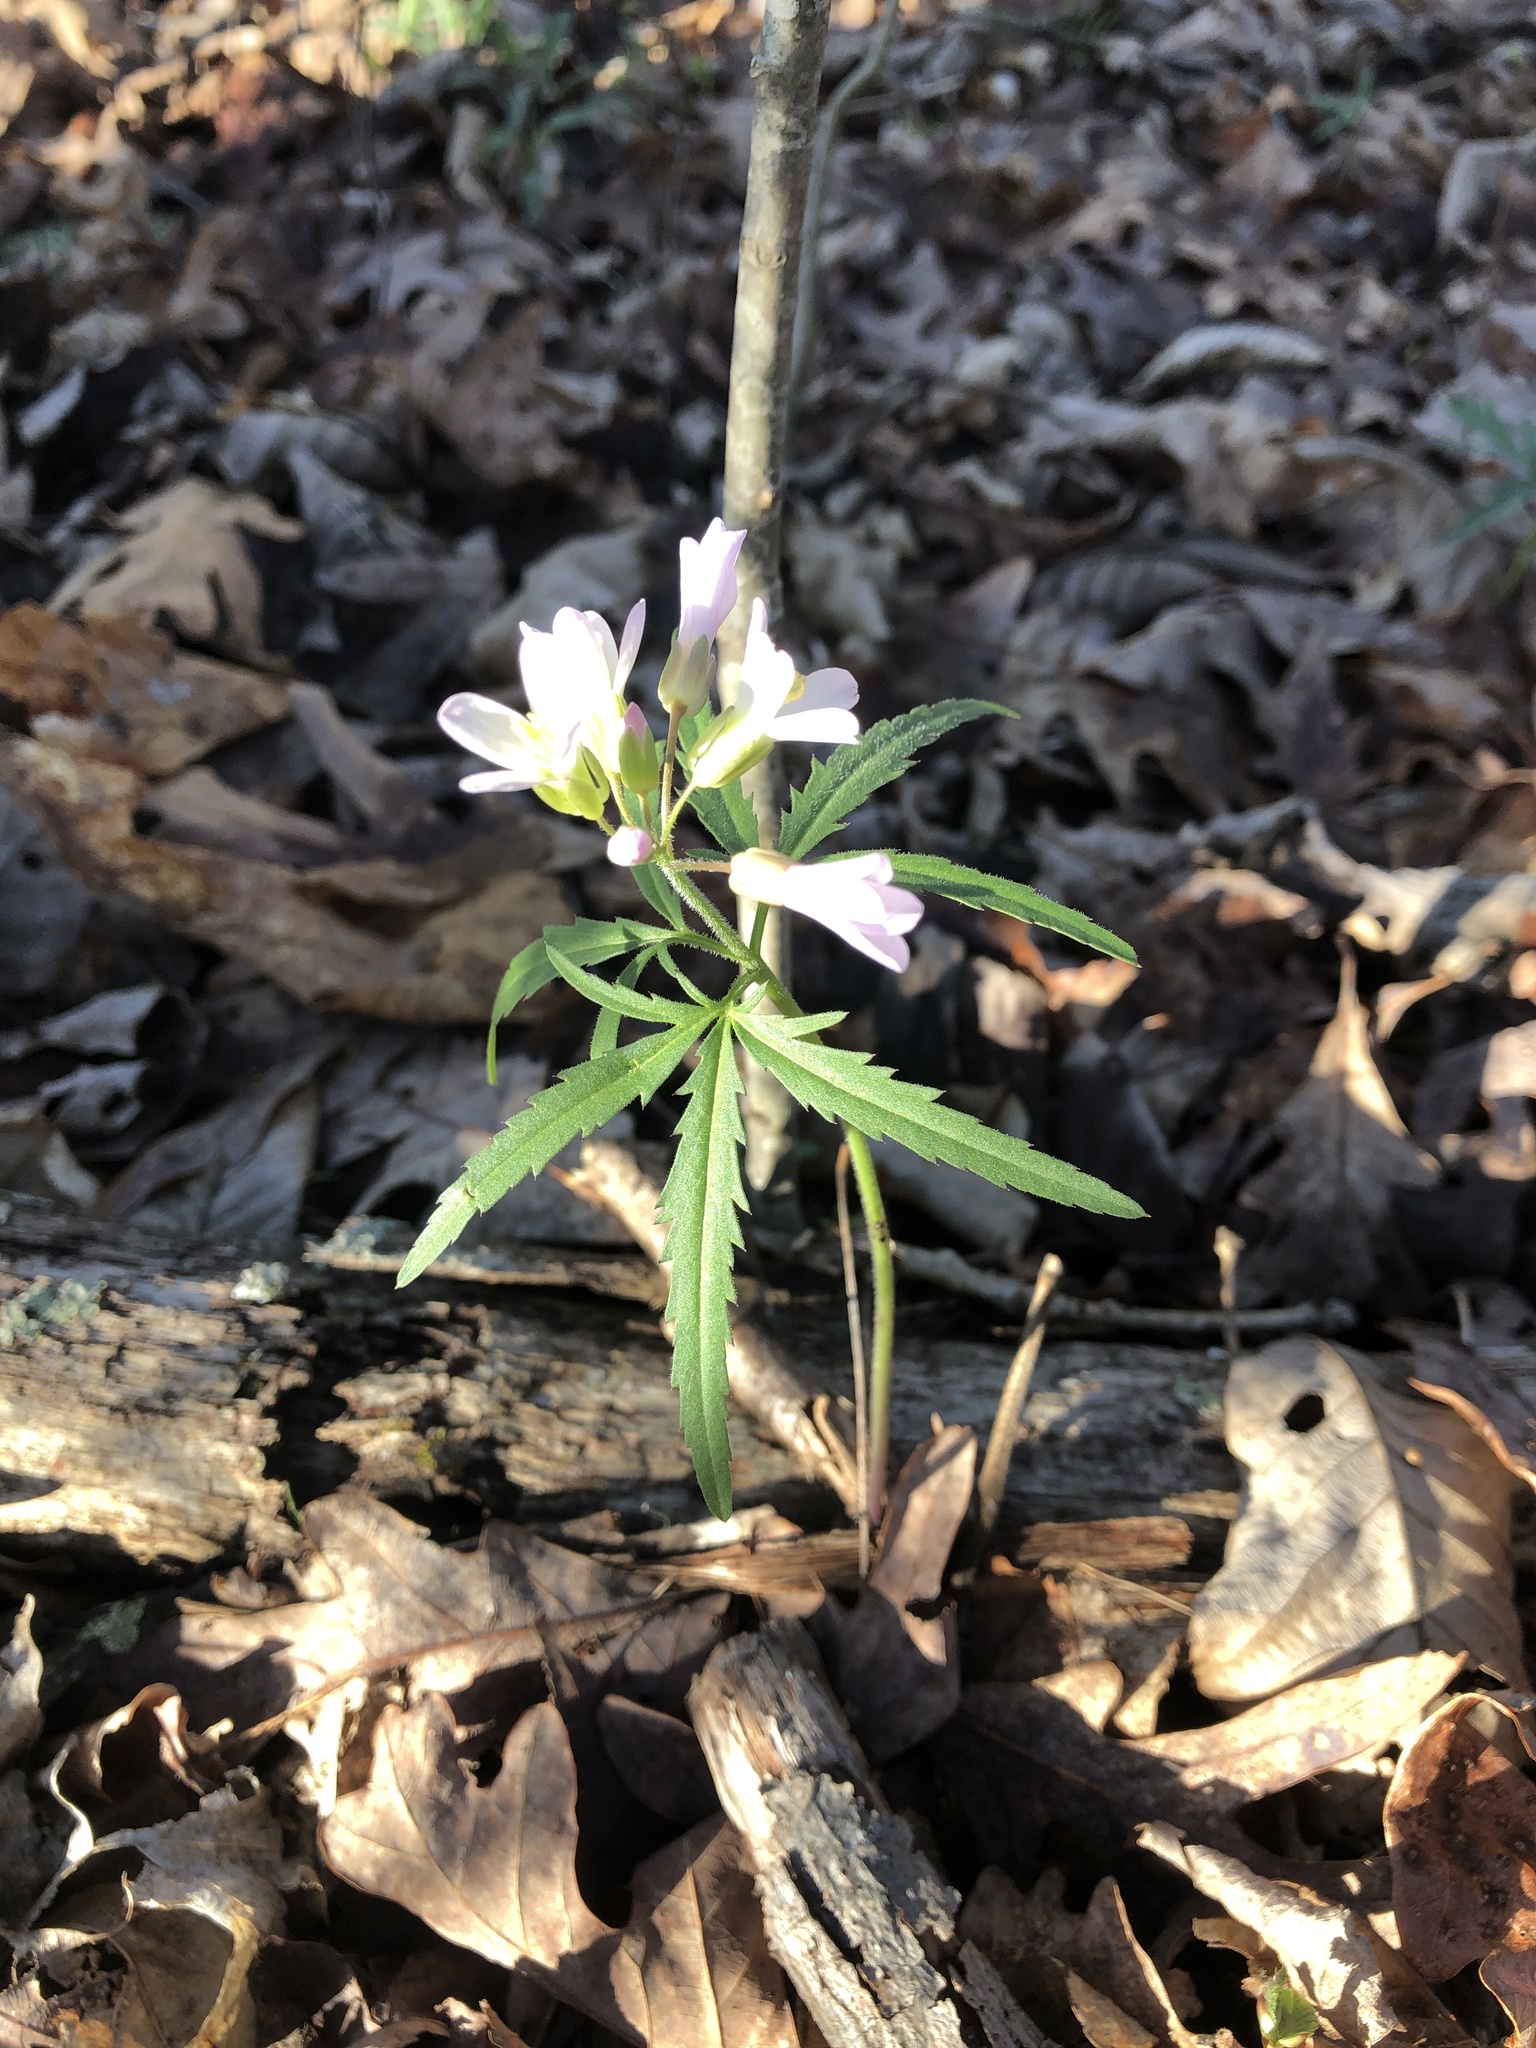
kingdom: Plantae
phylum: Tracheophyta
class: Magnoliopsida
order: Brassicales
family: Brassicaceae
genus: Cardamine
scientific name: Cardamine concatenata
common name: Cut-leaf toothcup
